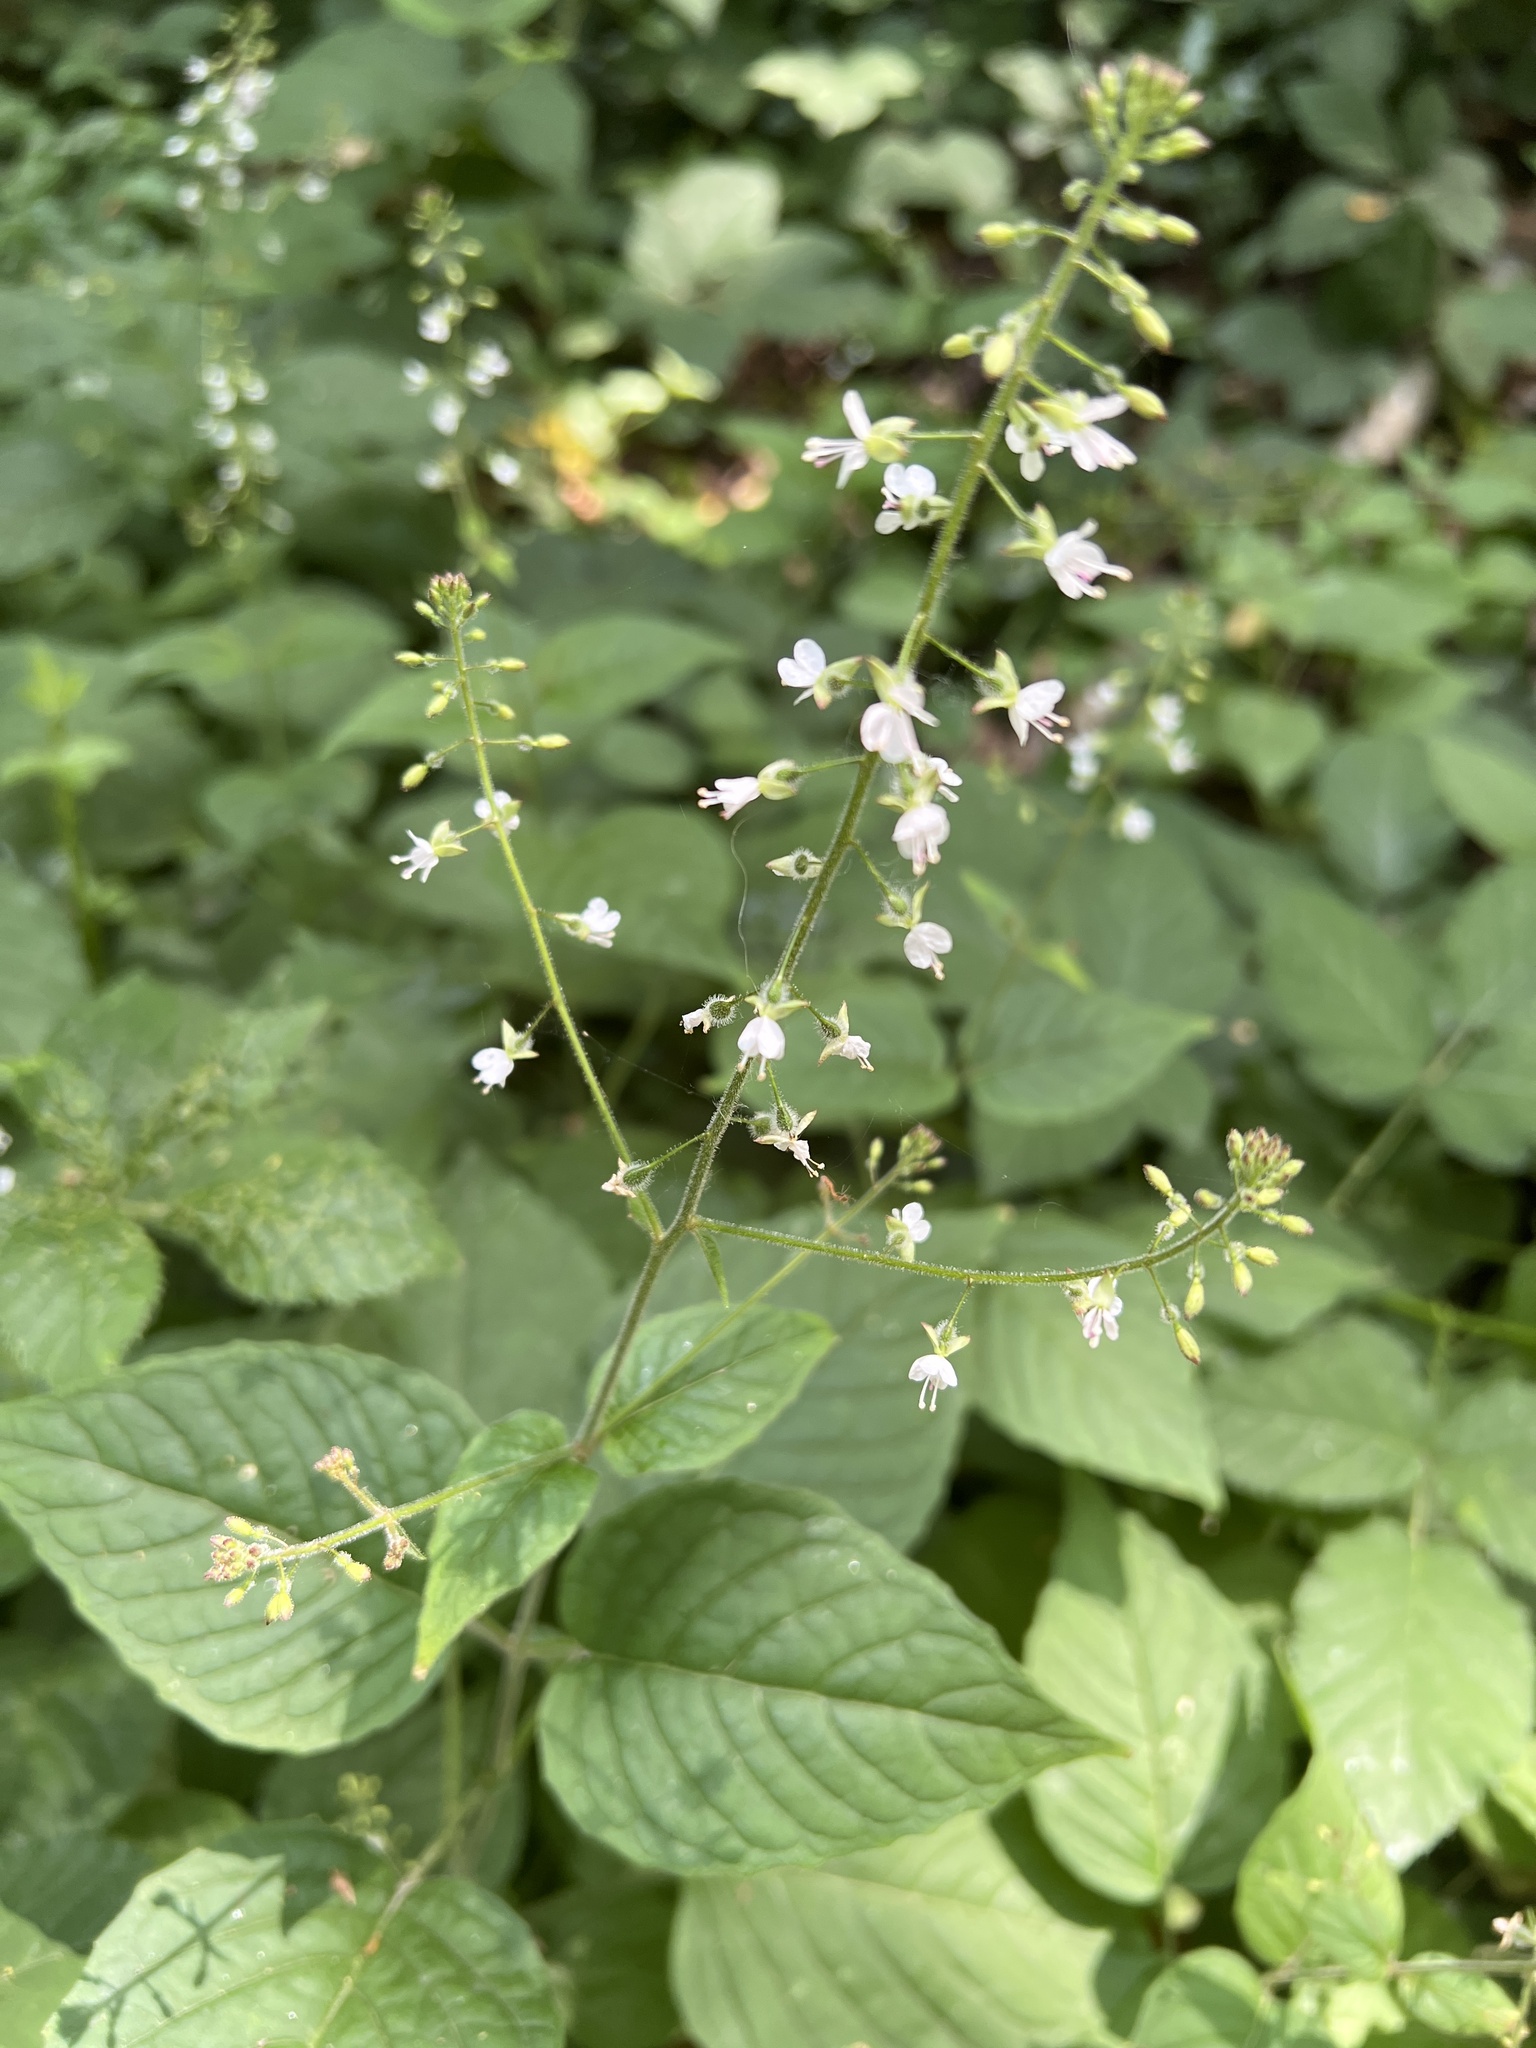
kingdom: Plantae
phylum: Tracheophyta
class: Magnoliopsida
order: Myrtales
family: Onagraceae
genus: Circaea
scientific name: Circaea lutetiana
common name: Enchanter's-nightshade
